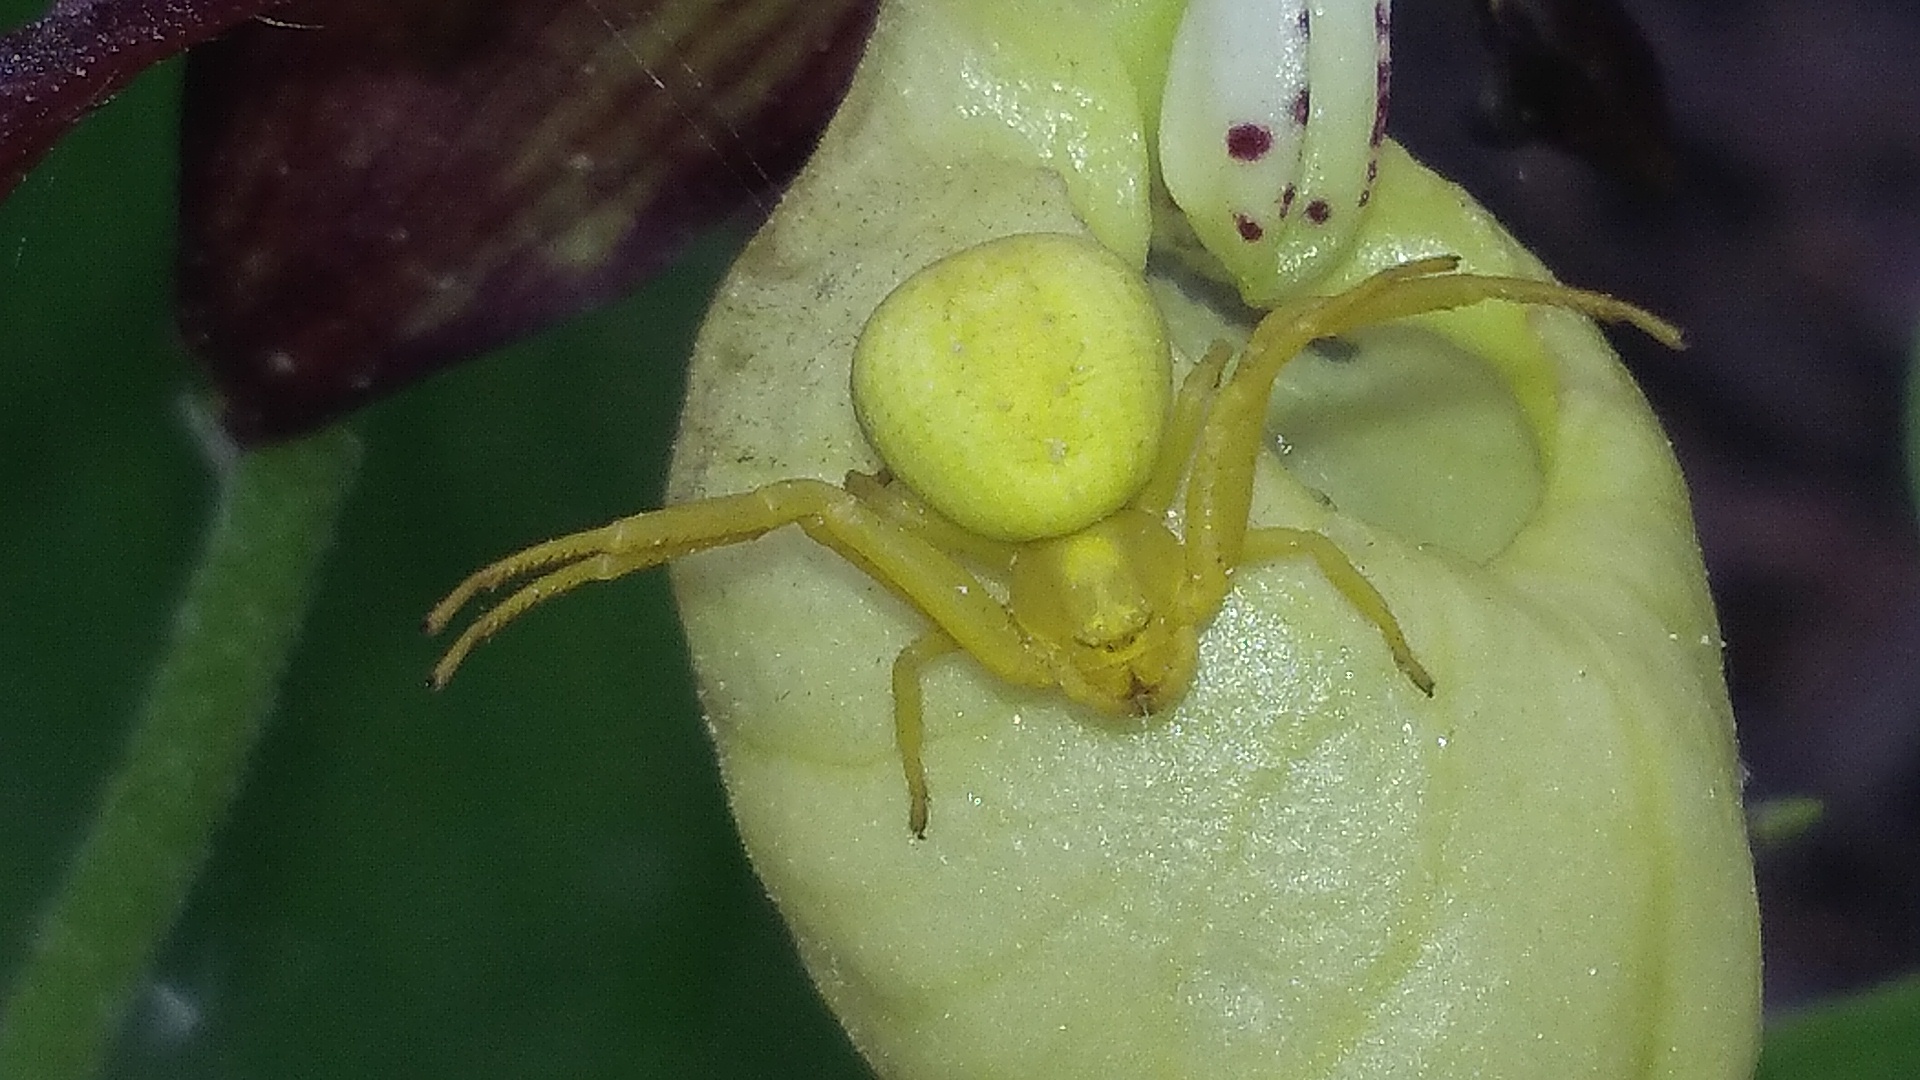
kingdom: Animalia
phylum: Arthropoda
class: Arachnida
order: Araneae
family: Thomisidae
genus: Misumena
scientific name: Misumena vatia
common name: Goldenrod crab spider
